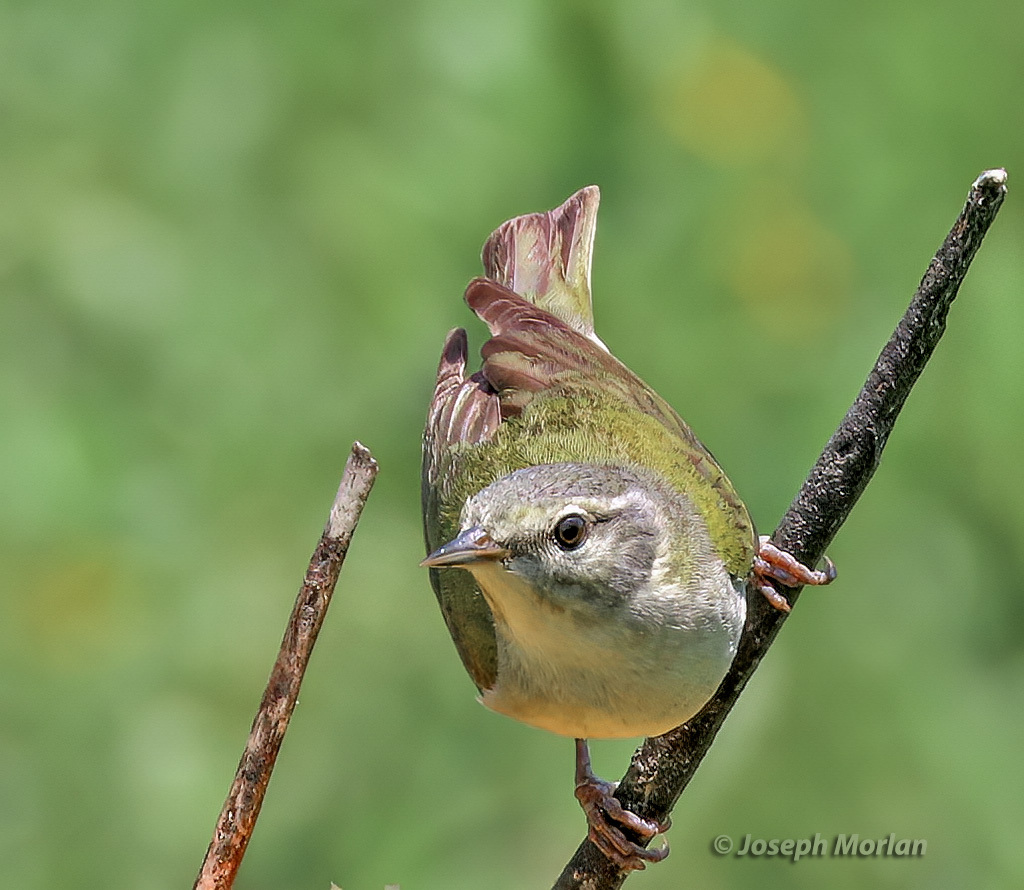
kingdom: Animalia
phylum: Chordata
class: Aves
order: Passeriformes
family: Parulidae
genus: Leiothlypis
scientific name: Leiothlypis peregrina
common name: Tennessee warbler
